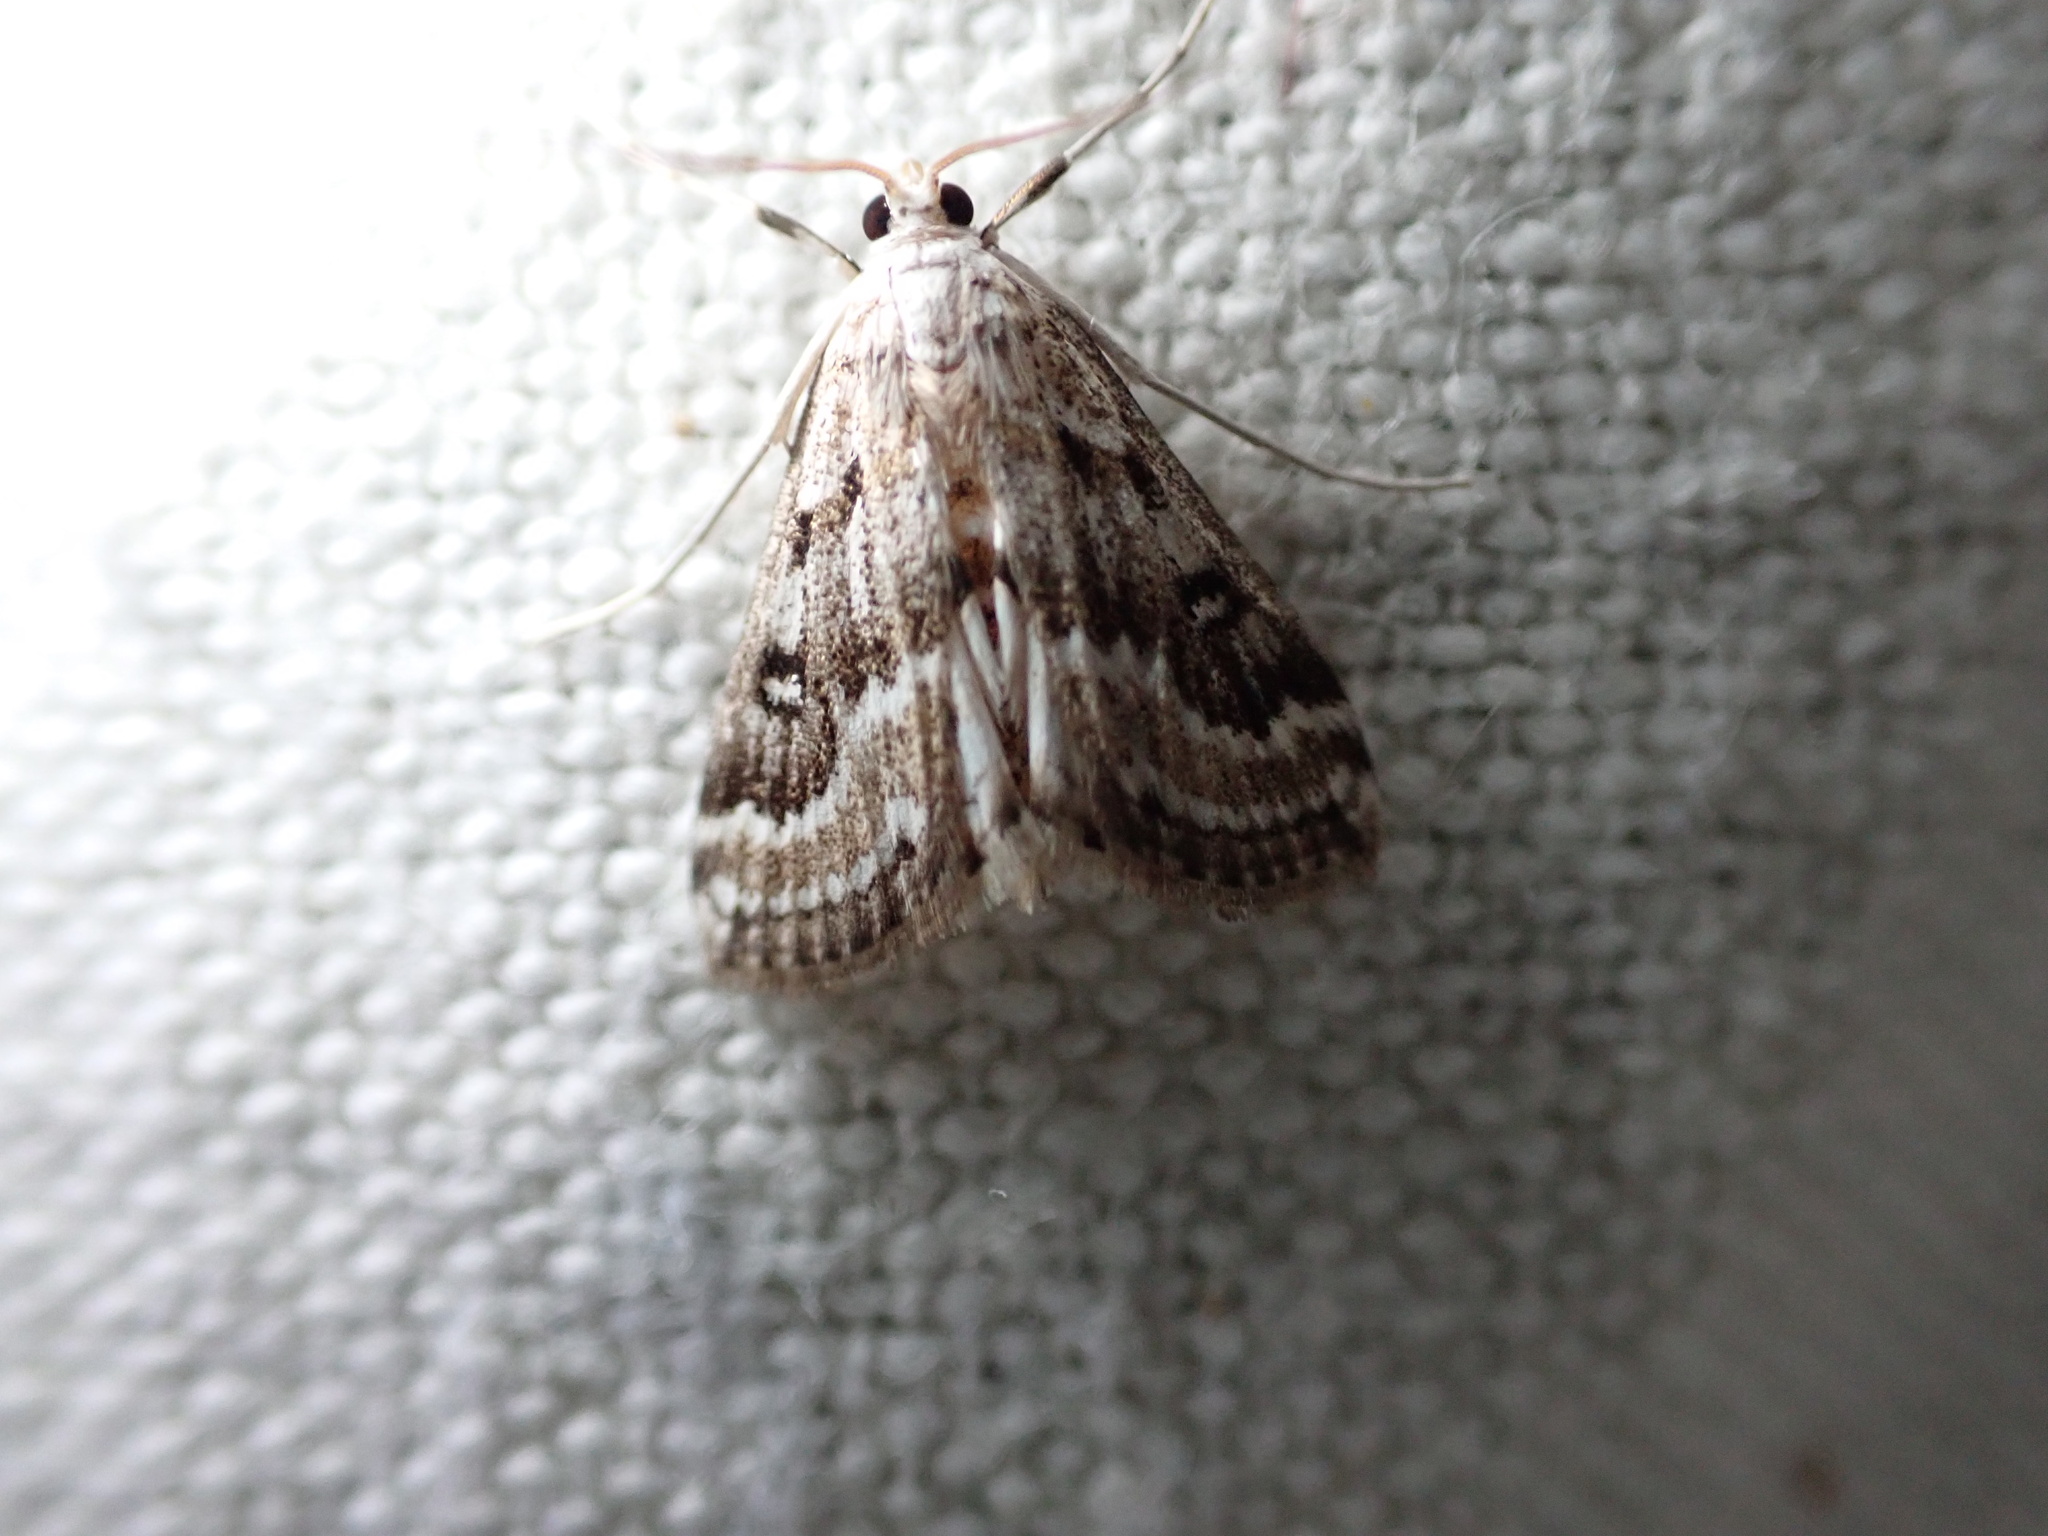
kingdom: Animalia
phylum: Arthropoda
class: Insecta
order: Lepidoptera
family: Crambidae
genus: Parapoynx
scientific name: Parapoynx stratiotata
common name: Ringed china-mark
